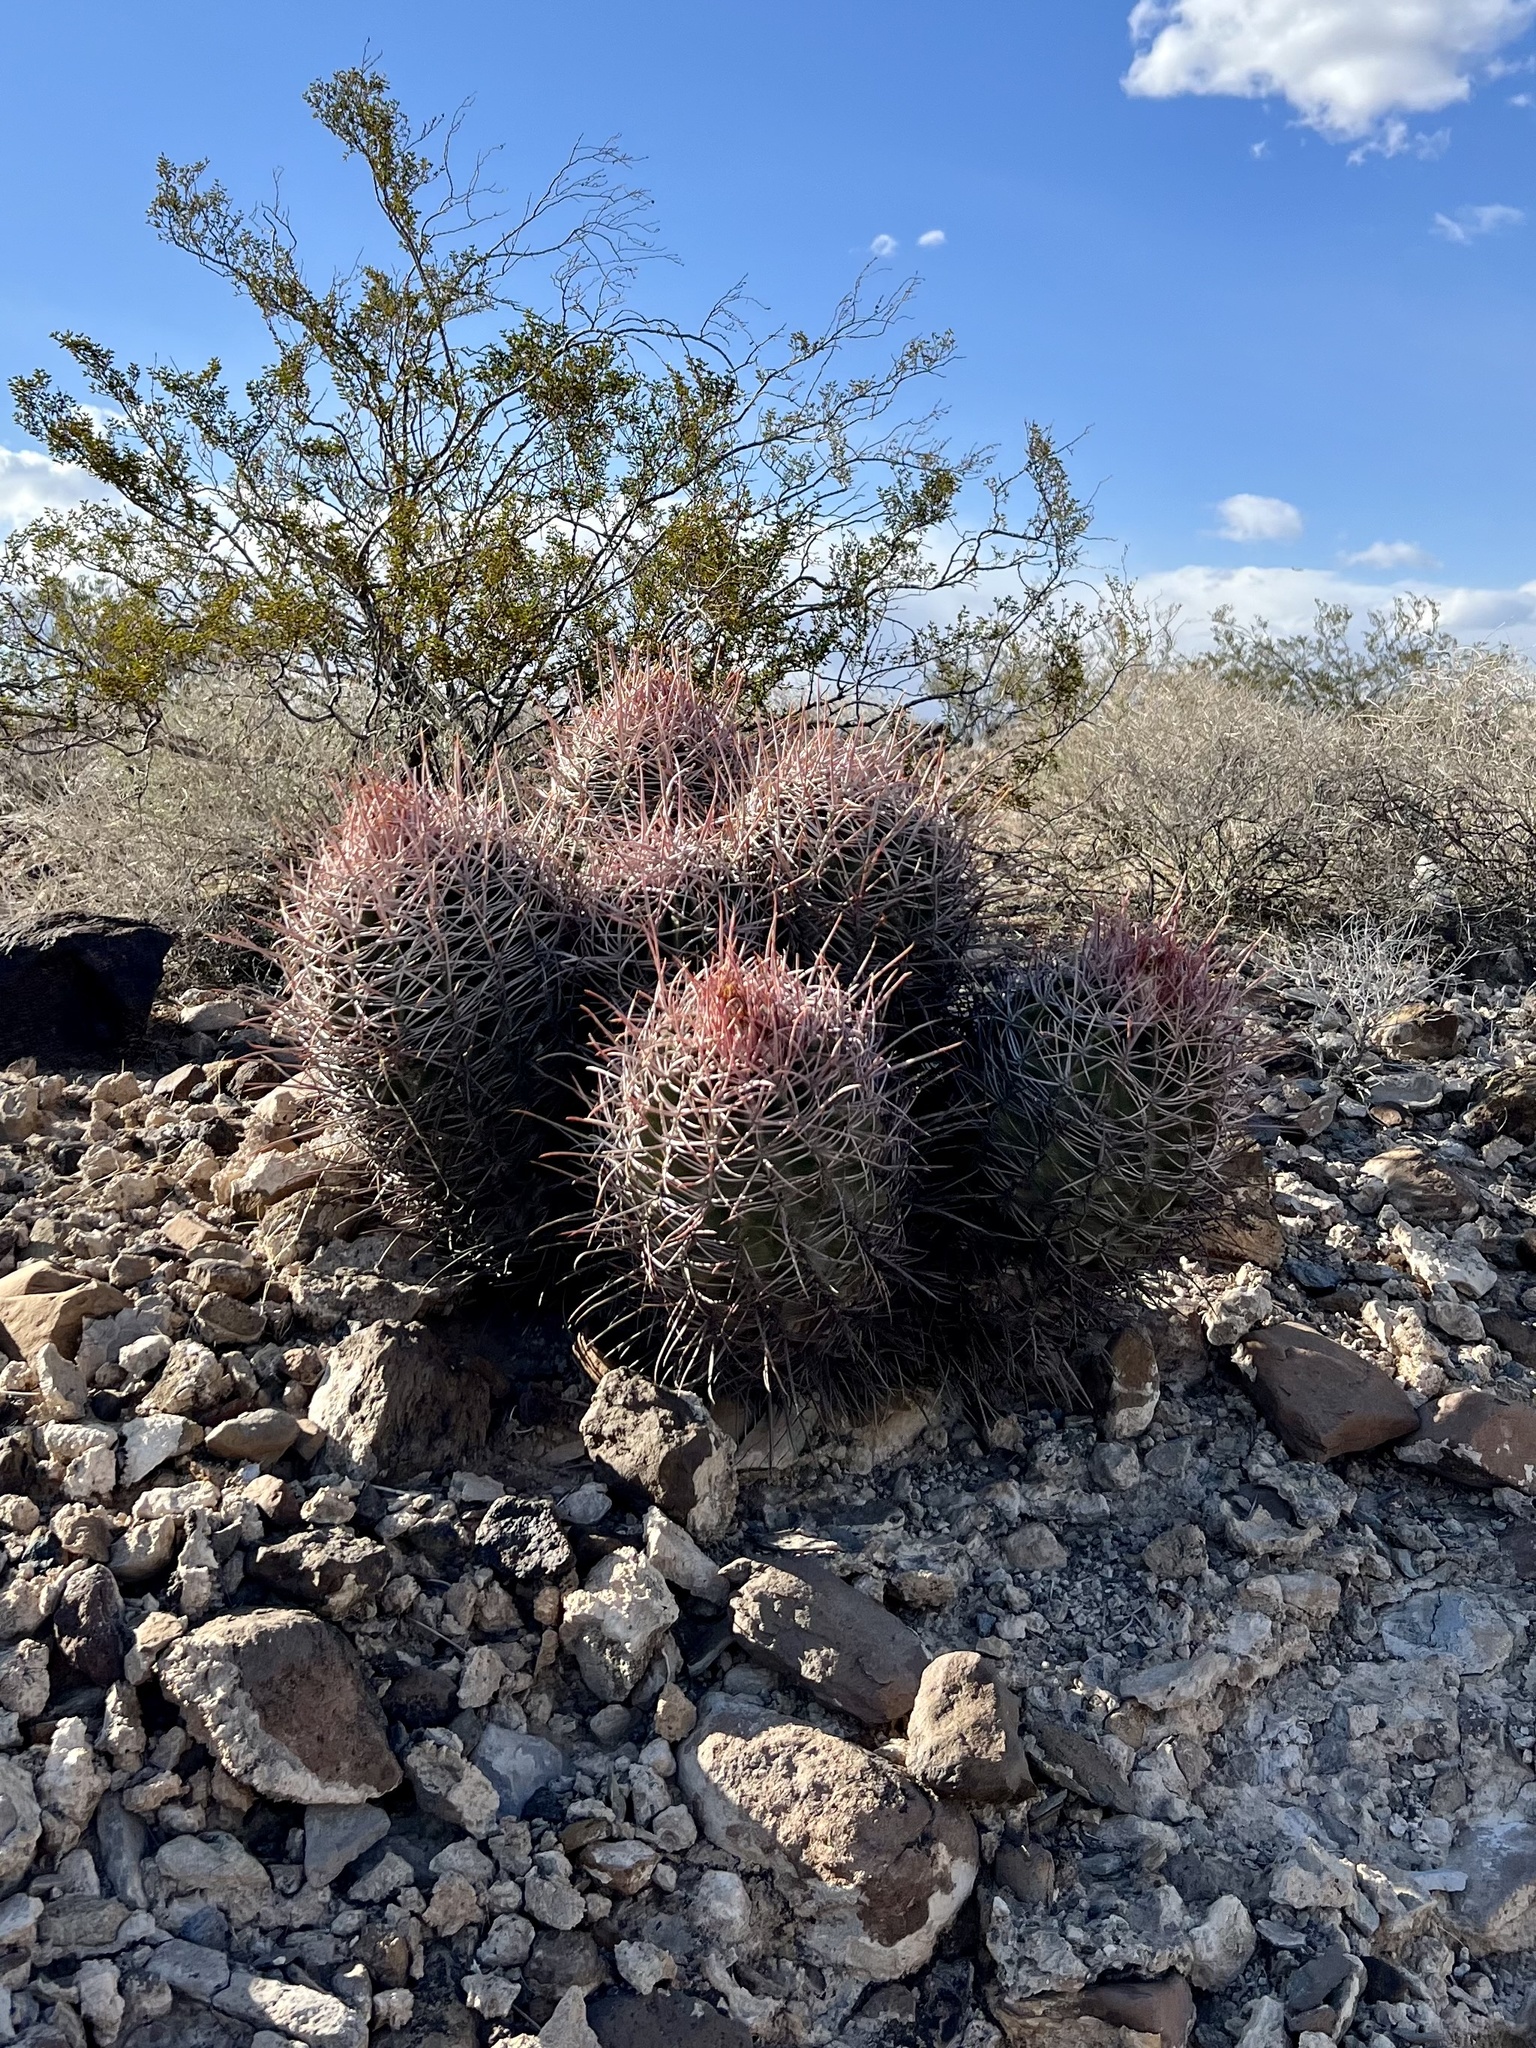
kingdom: Plantae
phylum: Tracheophyta
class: Magnoliopsida
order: Caryophyllales
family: Cactaceae
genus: Echinocactus
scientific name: Echinocactus polycephalus
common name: Cottontop cactus
